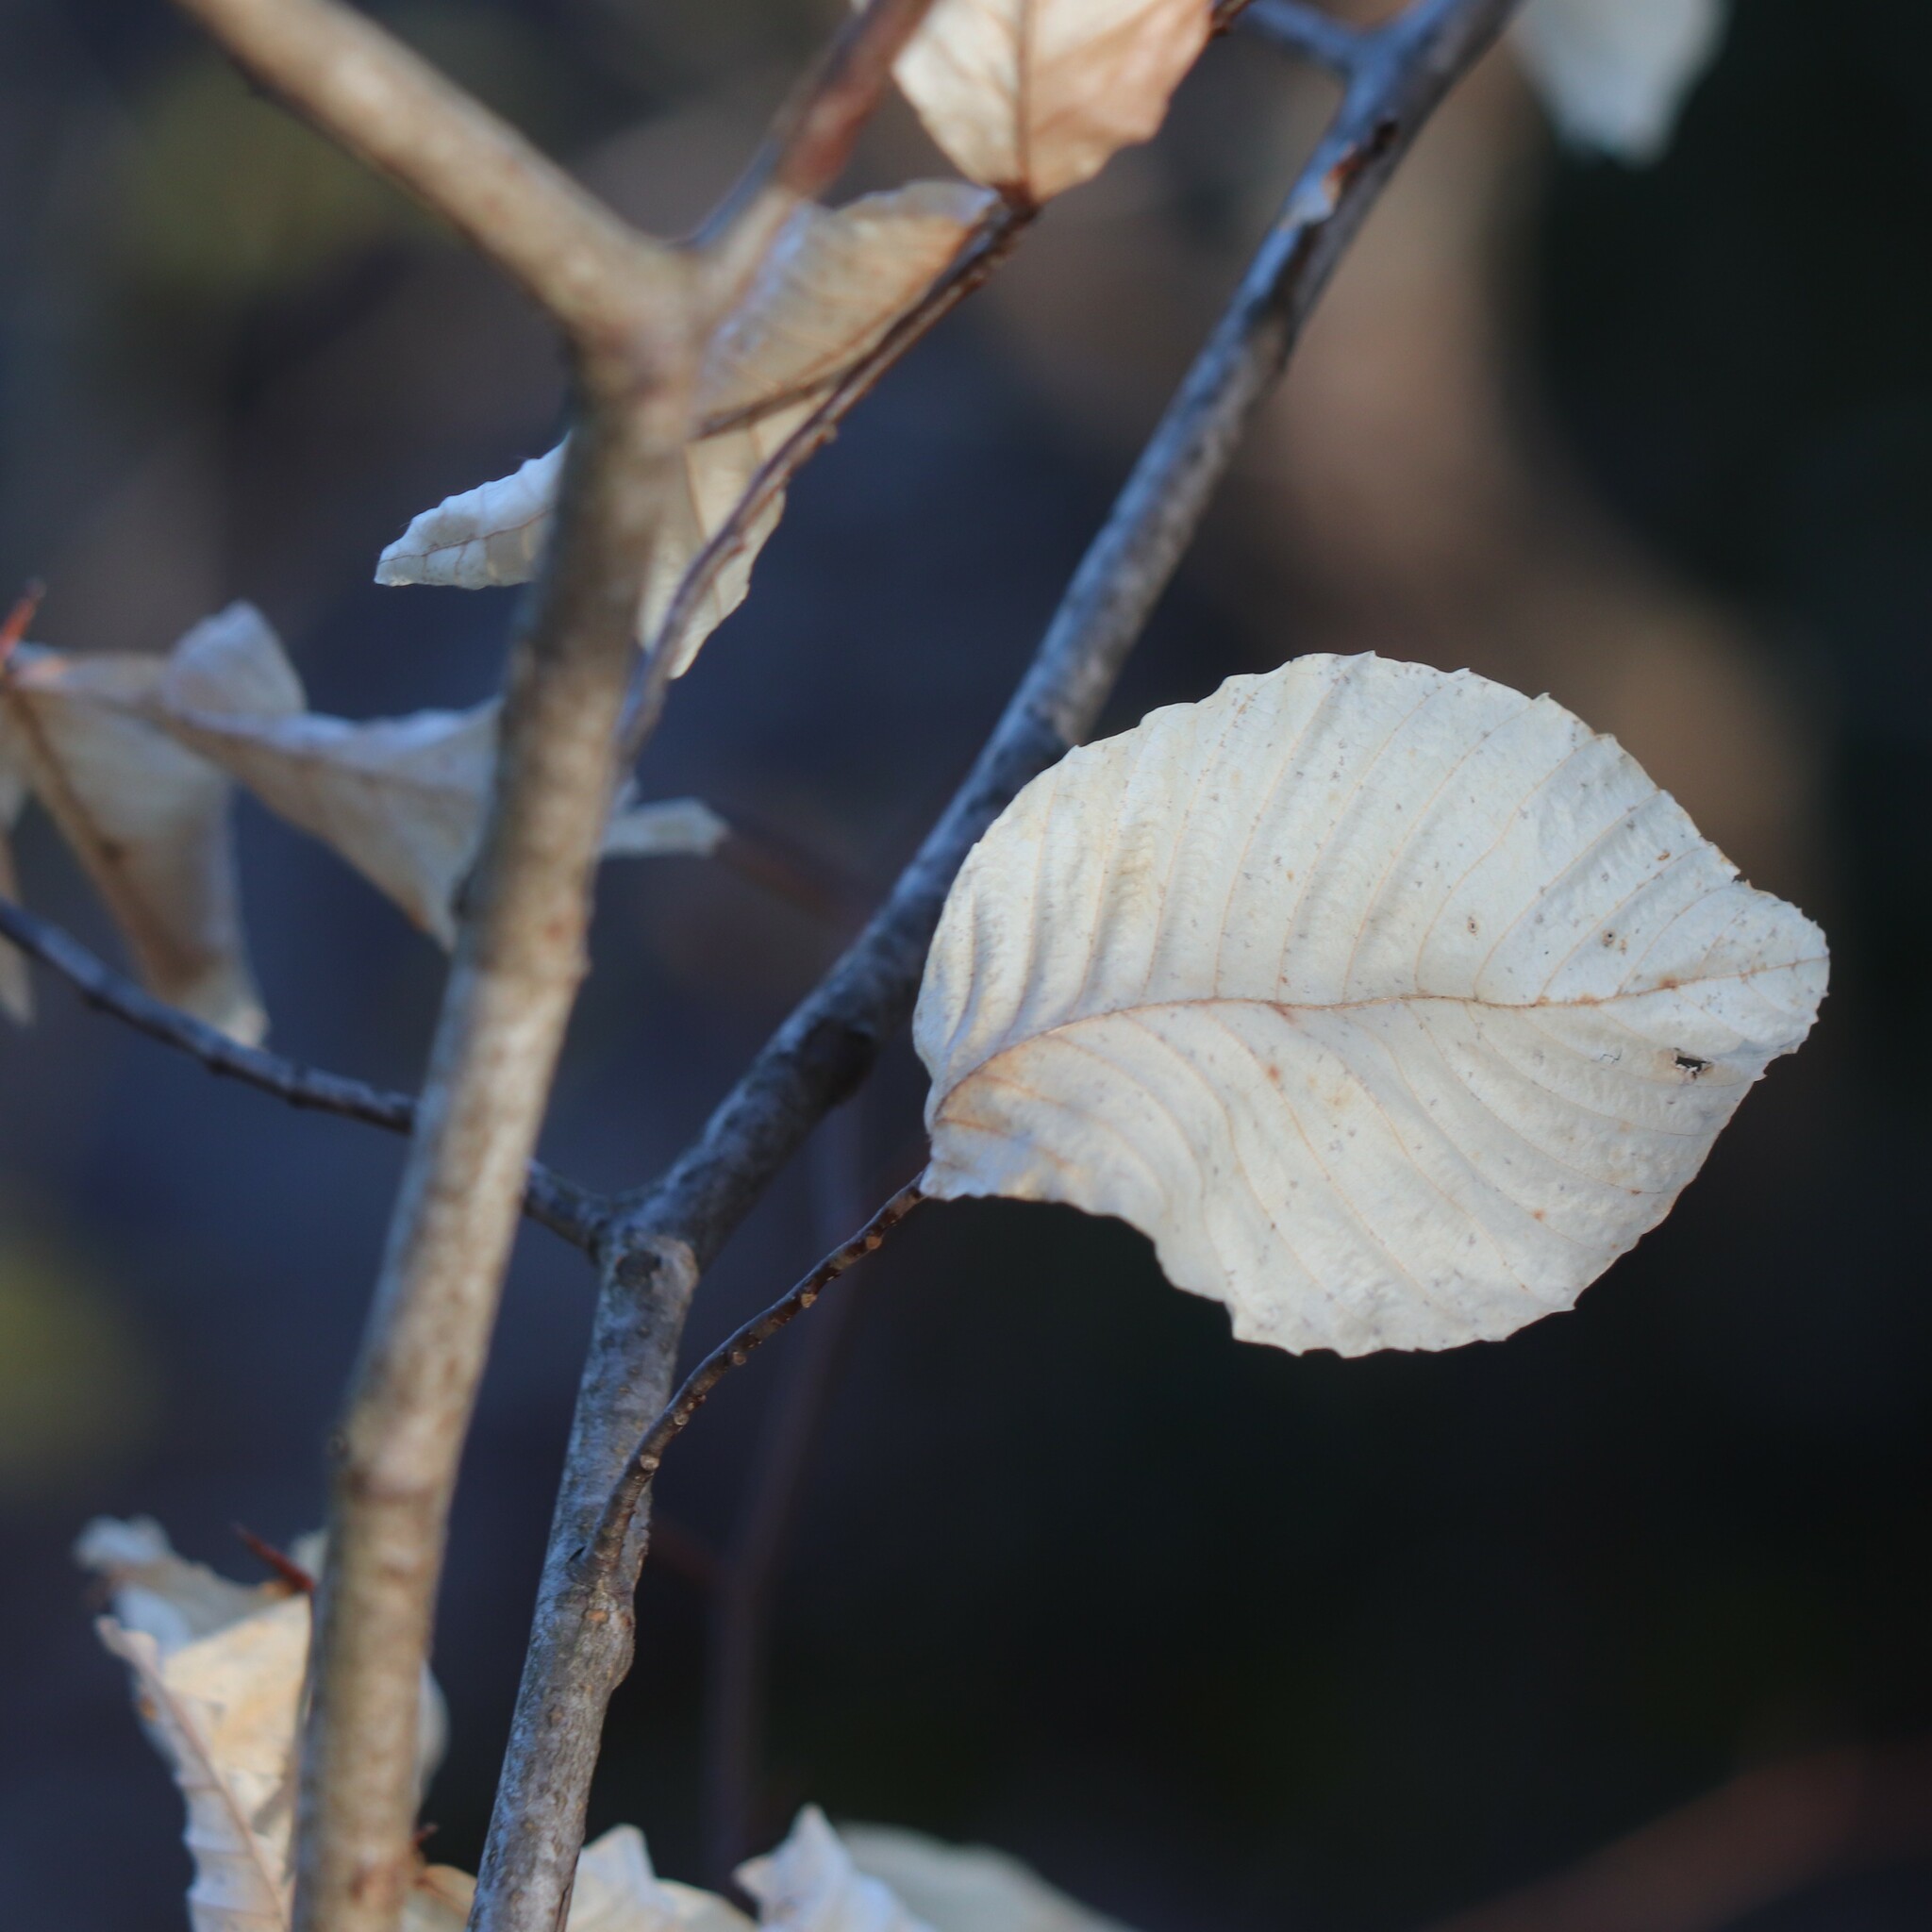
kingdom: Plantae
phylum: Tracheophyta
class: Magnoliopsida
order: Fagales
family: Fagaceae
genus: Fagus
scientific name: Fagus grandifolia
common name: American beech
